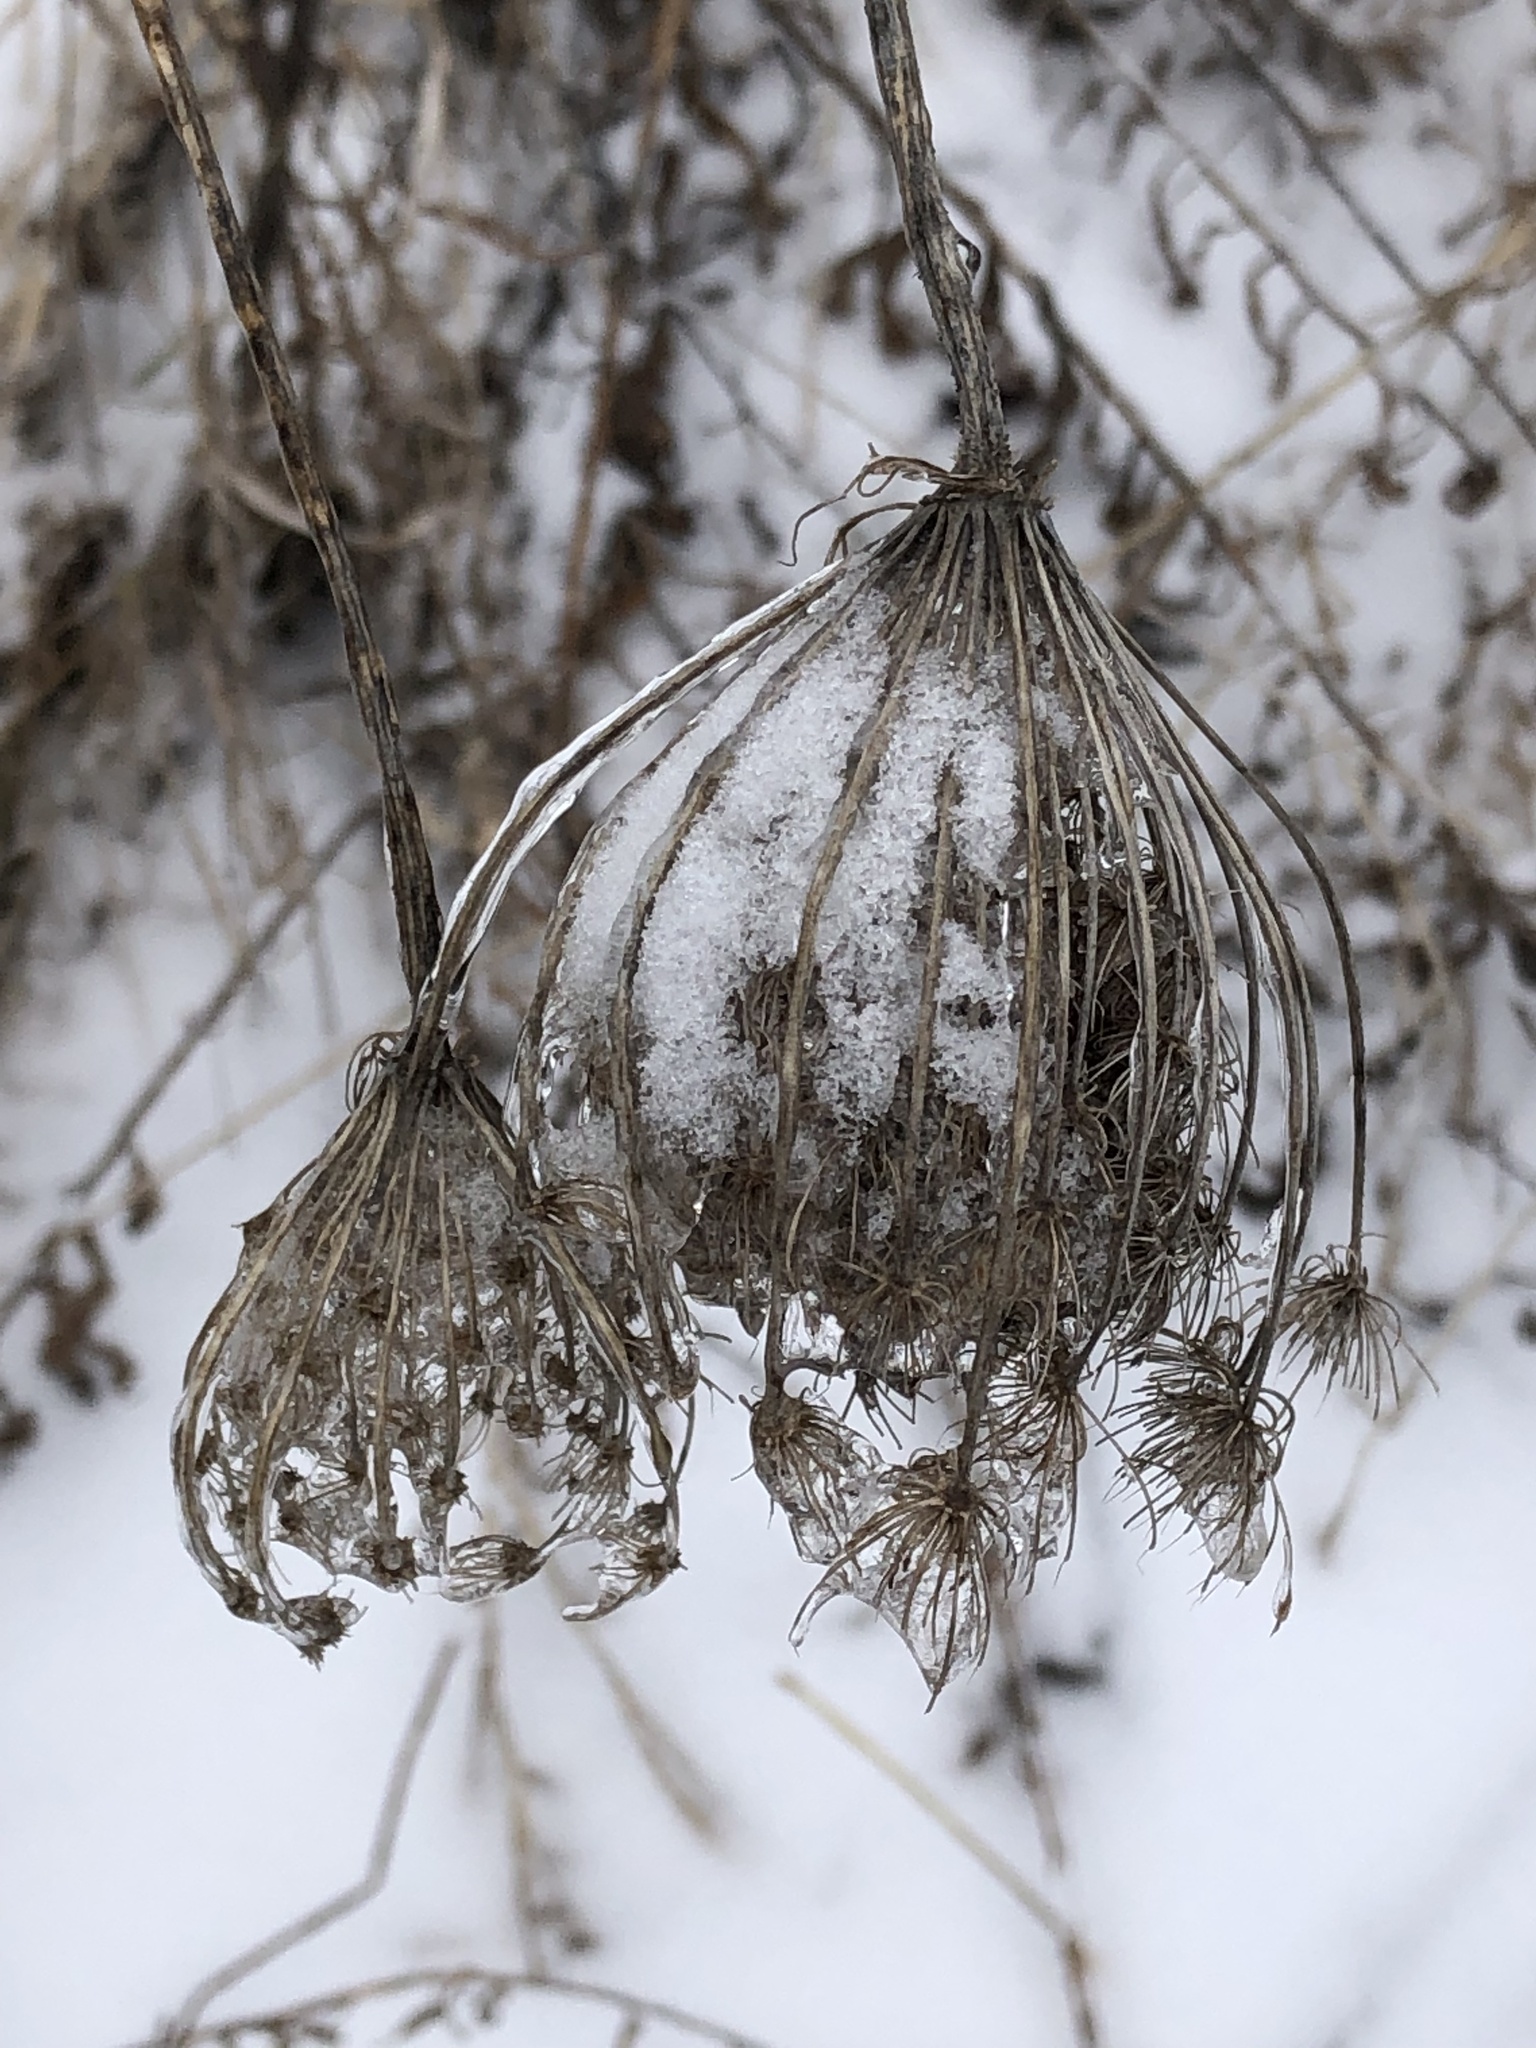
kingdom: Plantae
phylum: Tracheophyta
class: Magnoliopsida
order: Apiales
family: Apiaceae
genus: Daucus
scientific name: Daucus carota
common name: Wild carrot
